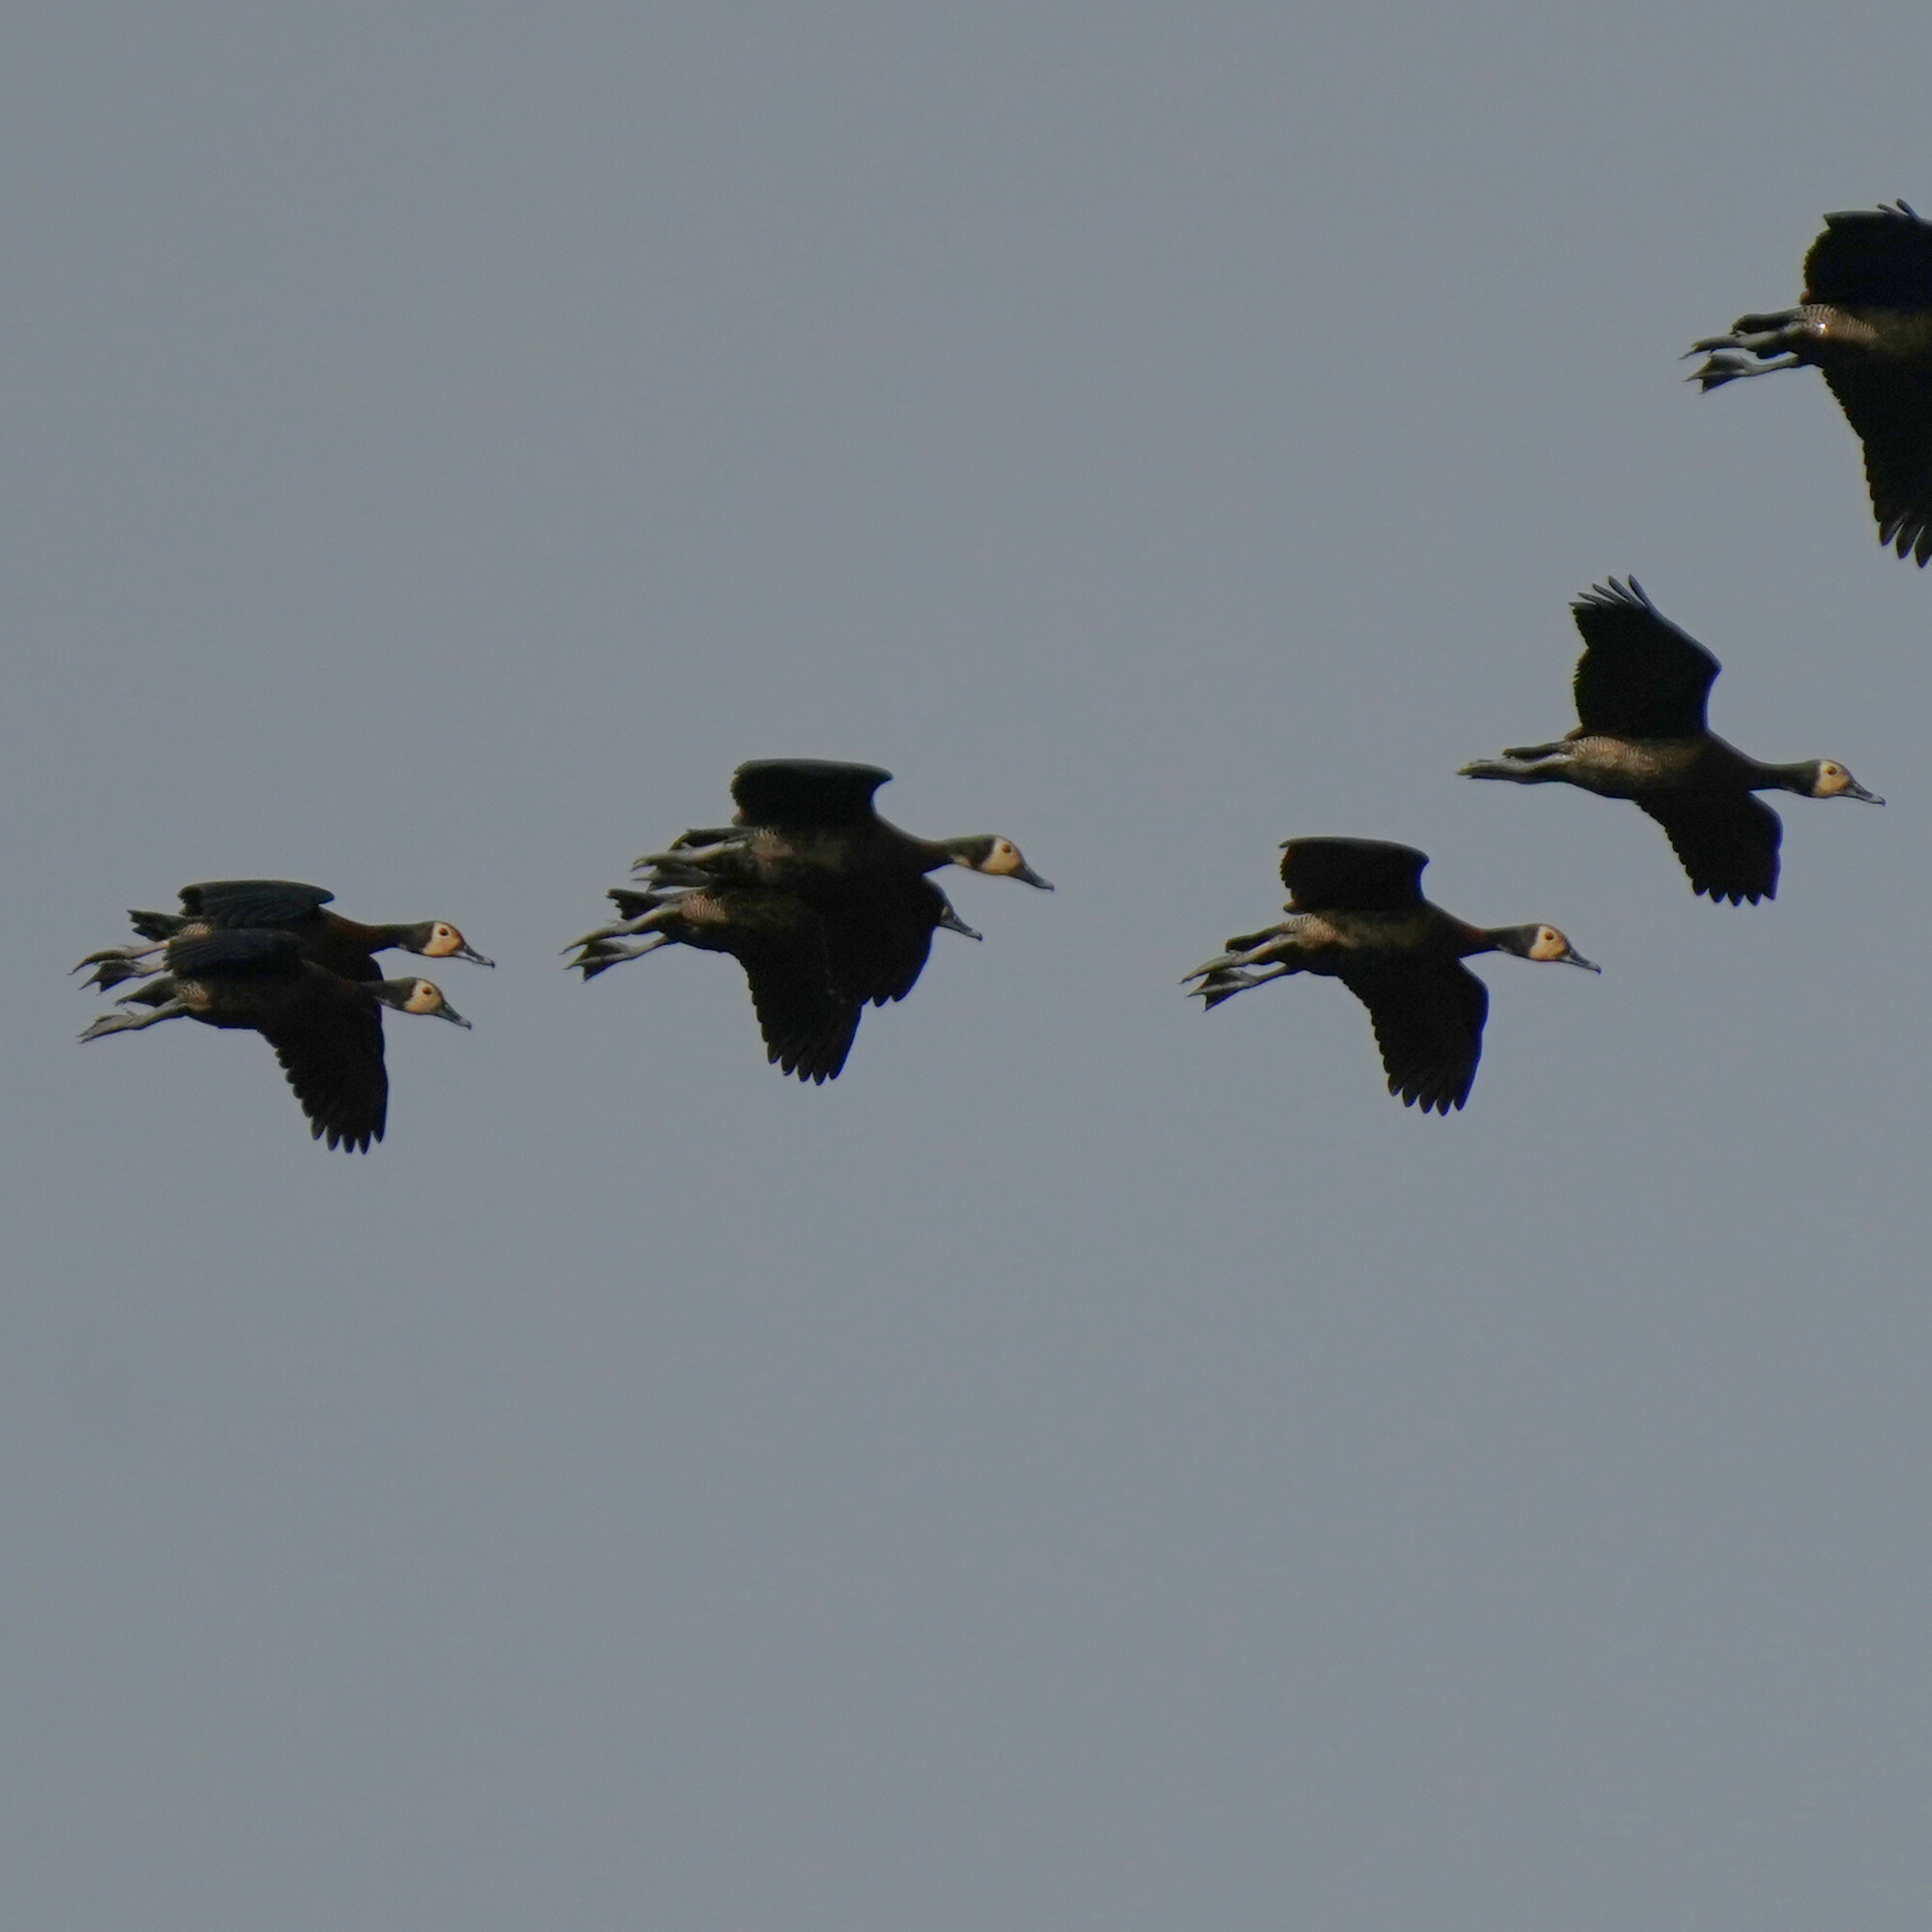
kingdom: Animalia
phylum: Chordata
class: Aves
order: Anseriformes
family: Anatidae
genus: Dendrocygna
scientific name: Dendrocygna viduata
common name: White-faced whistling duck
